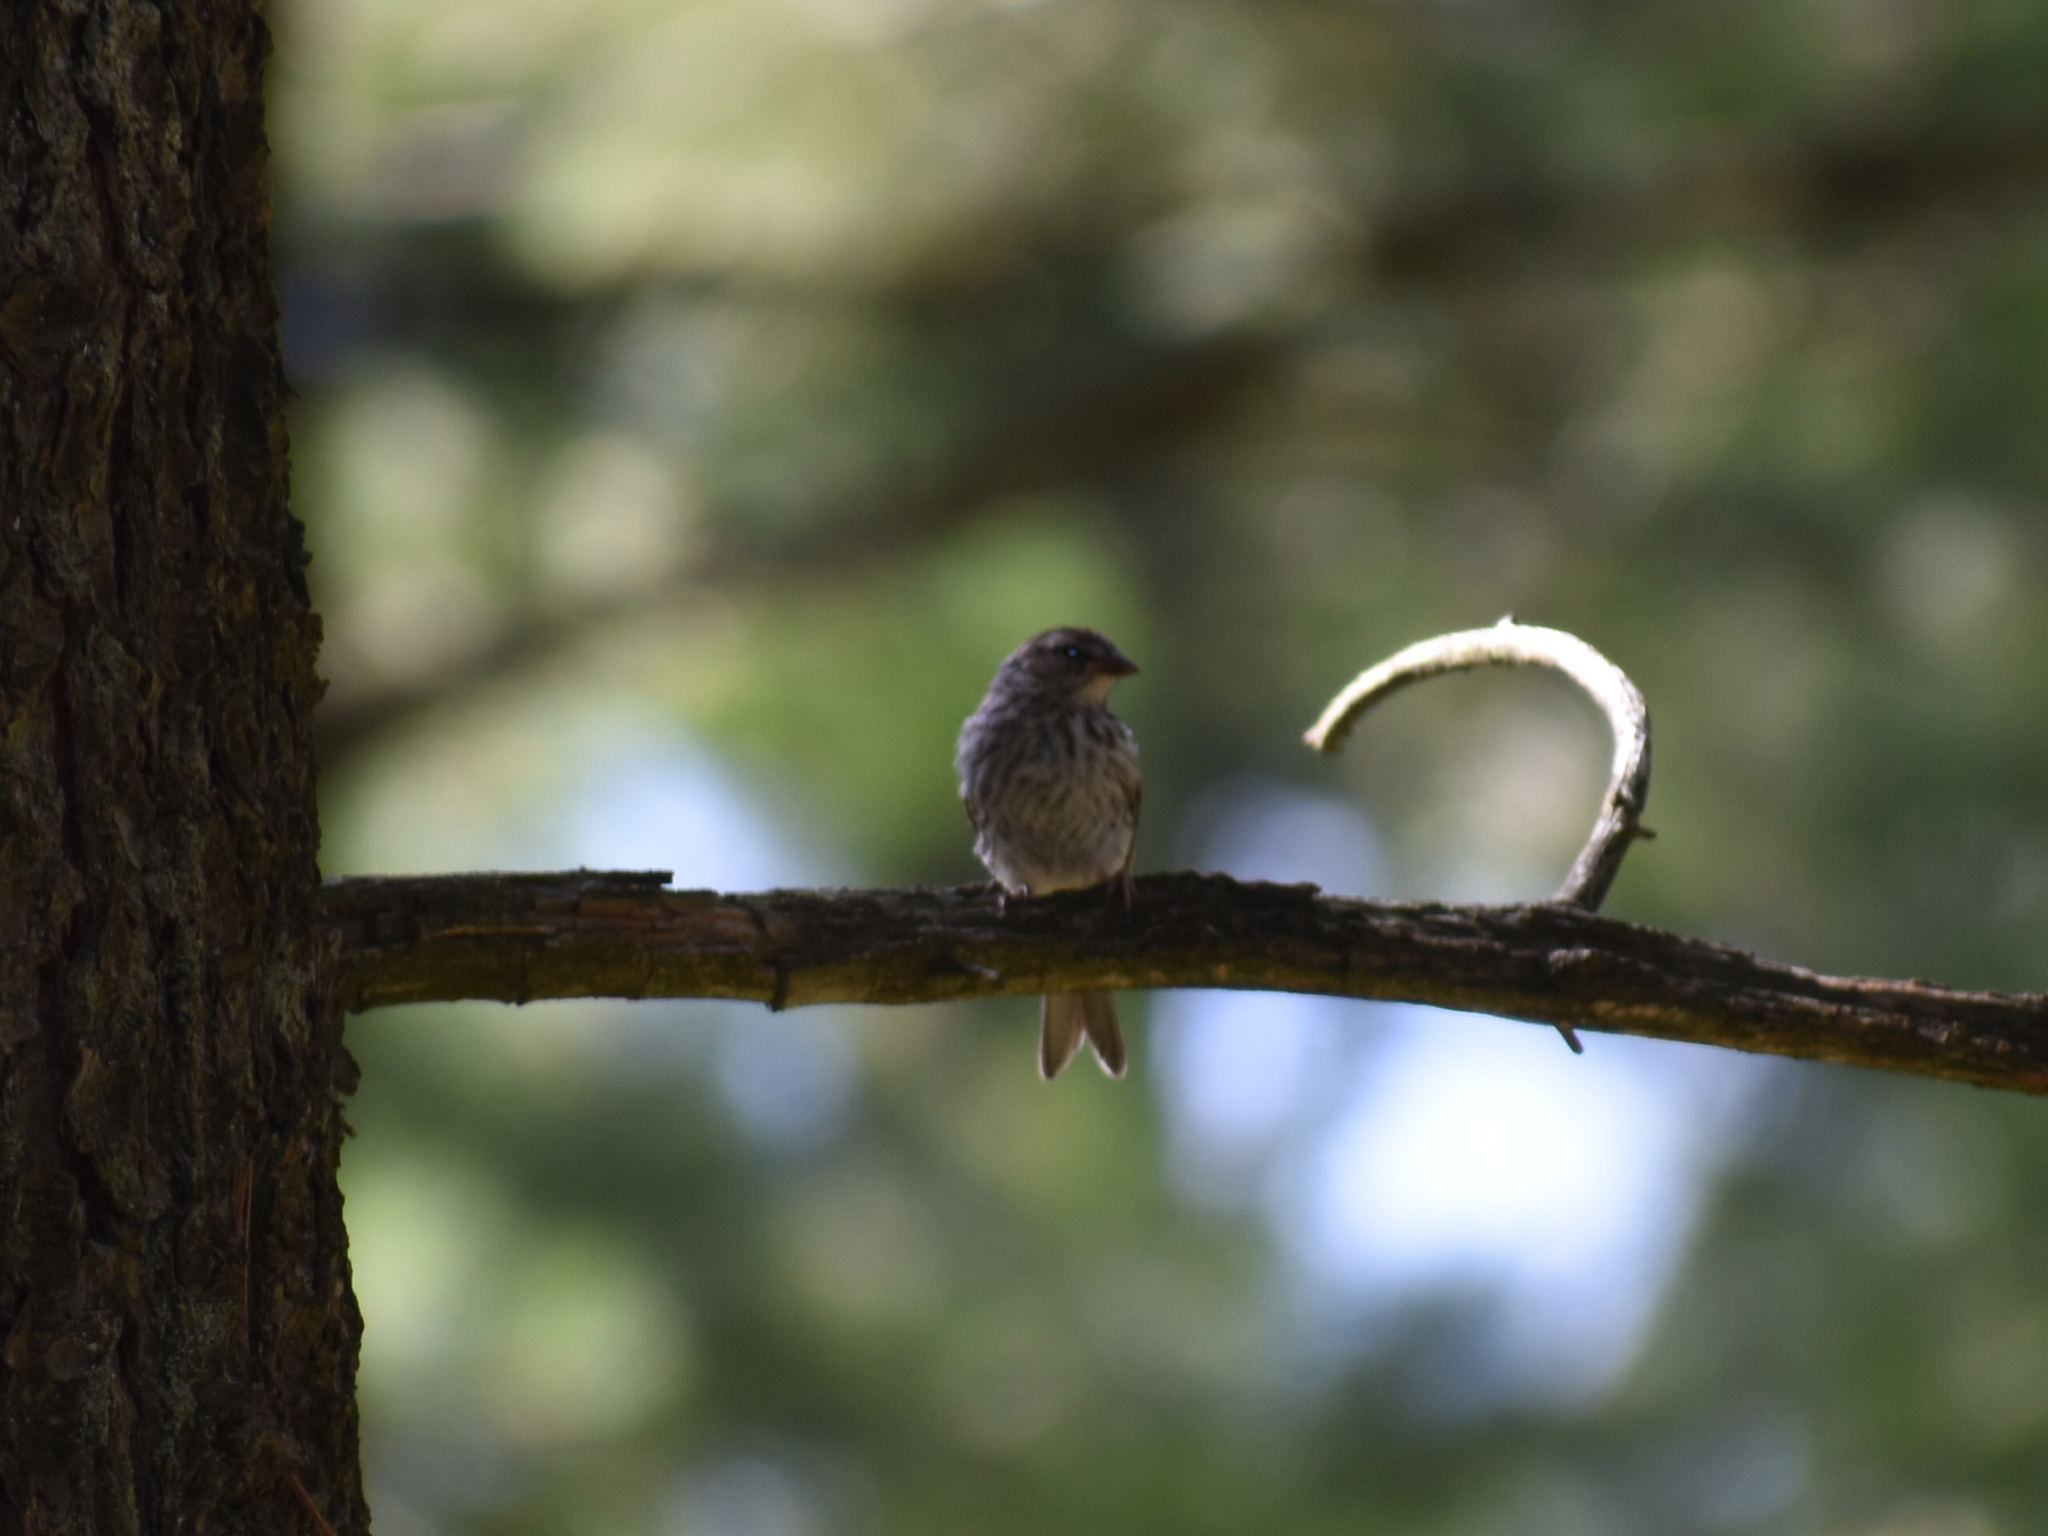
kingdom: Animalia
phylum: Chordata
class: Aves
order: Passeriformes
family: Passerellidae
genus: Spizella
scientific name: Spizella passerina
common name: Chipping sparrow
